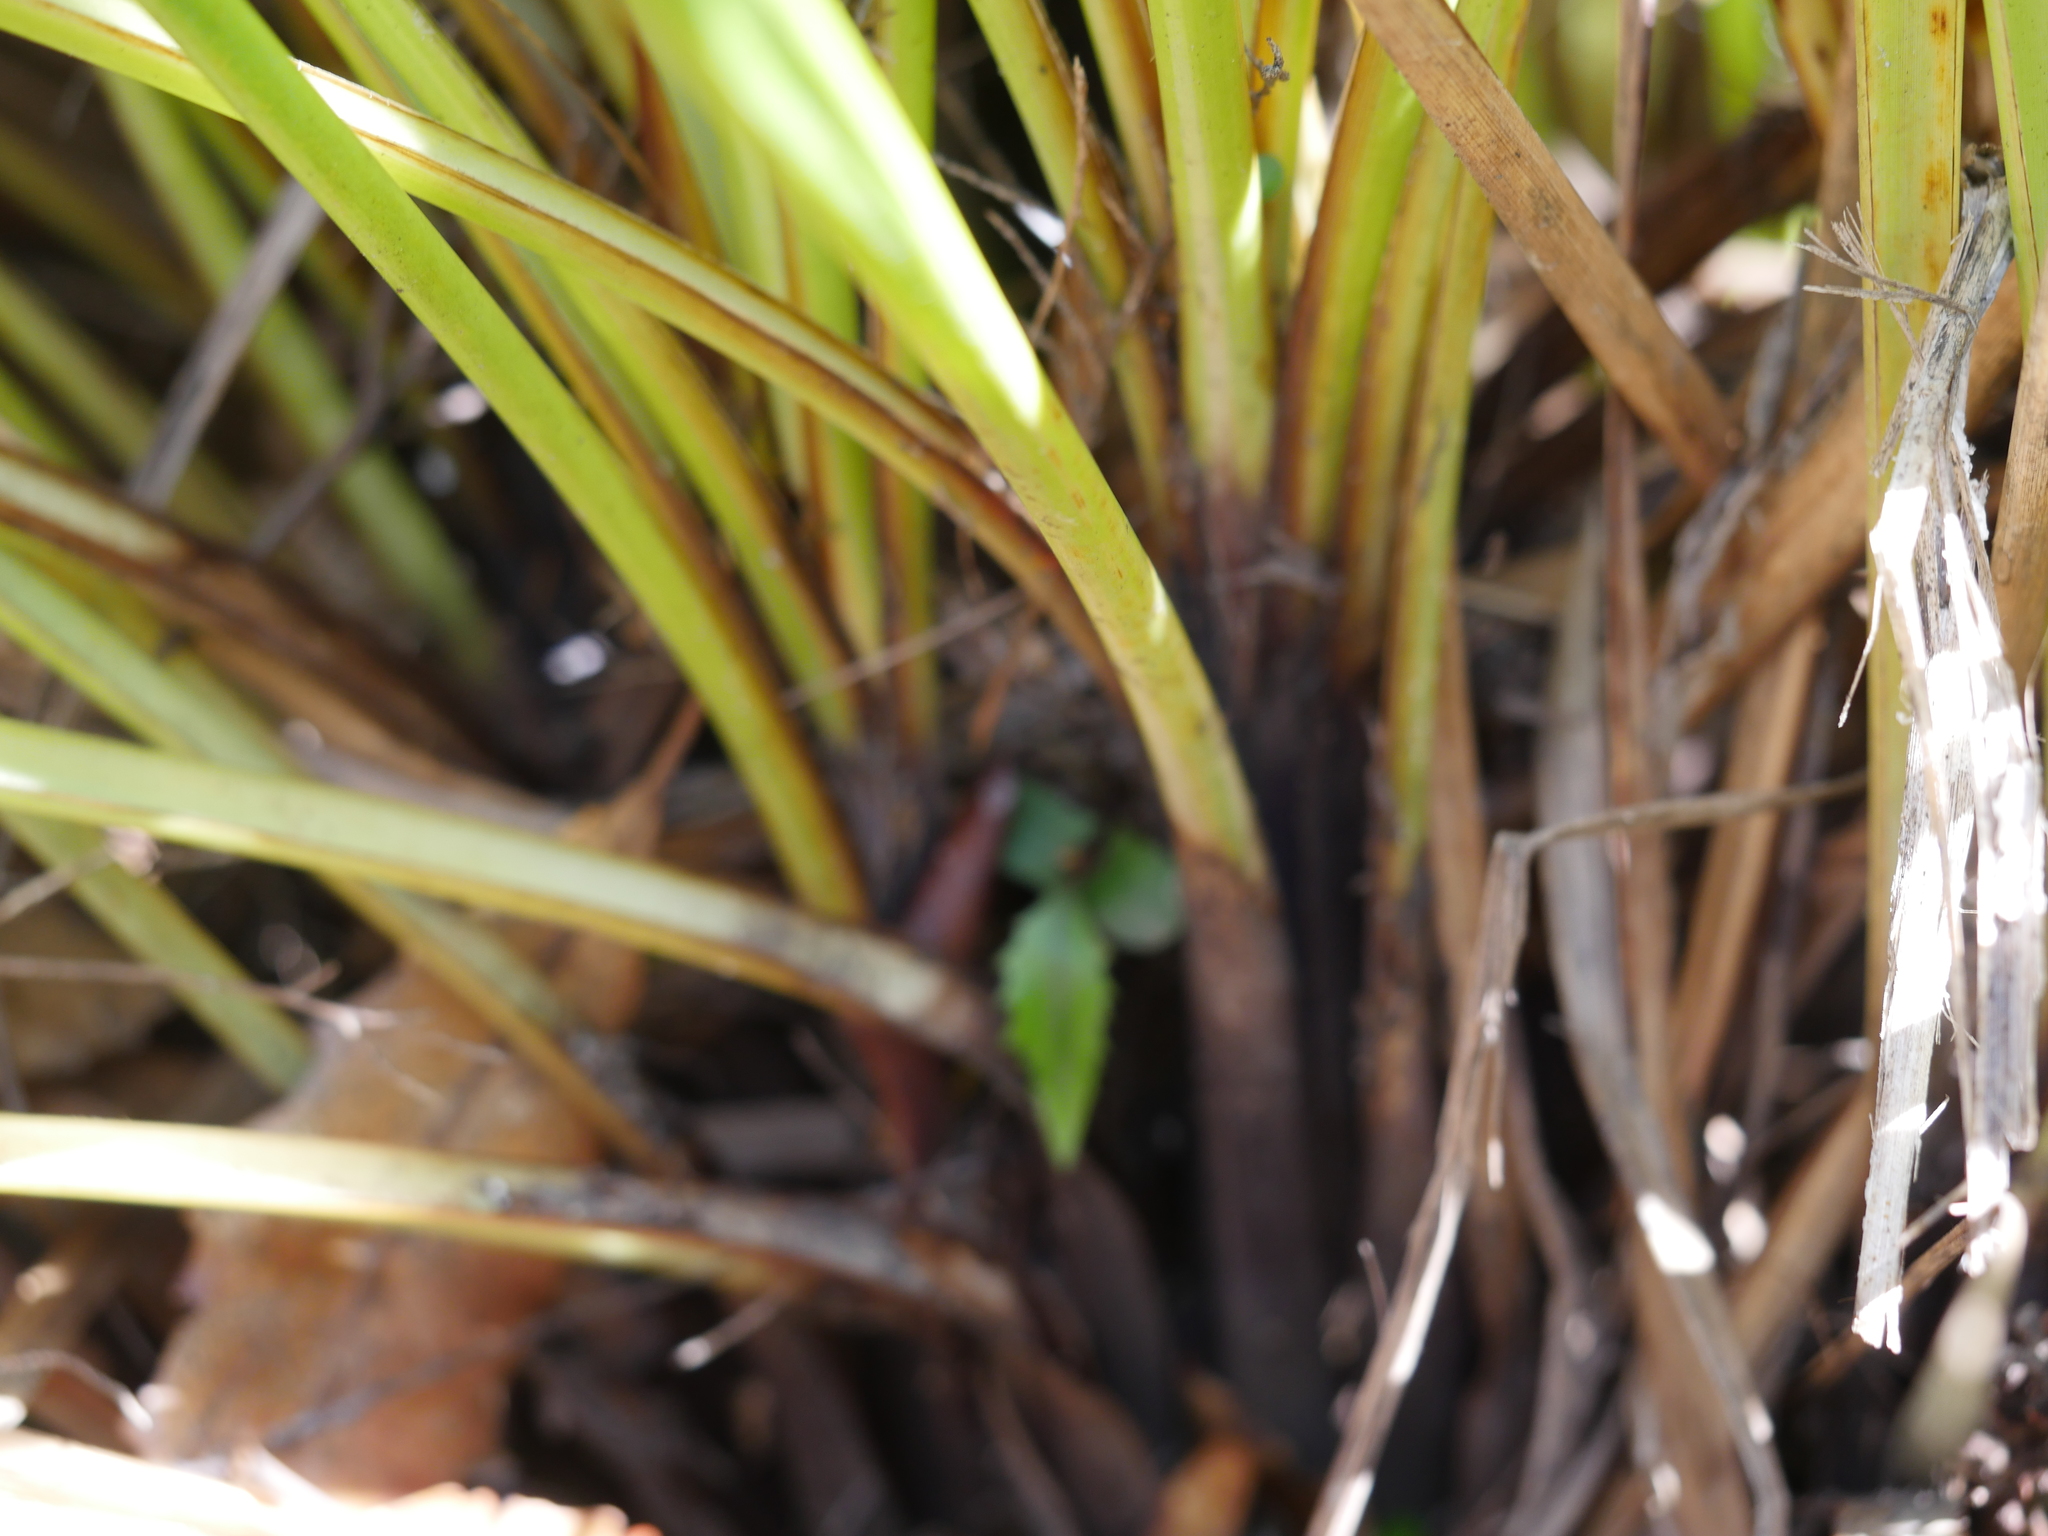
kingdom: Plantae
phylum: Tracheophyta
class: Liliopsida
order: Poales
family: Cyperaceae
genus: Gahnia
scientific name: Gahnia setifolia
